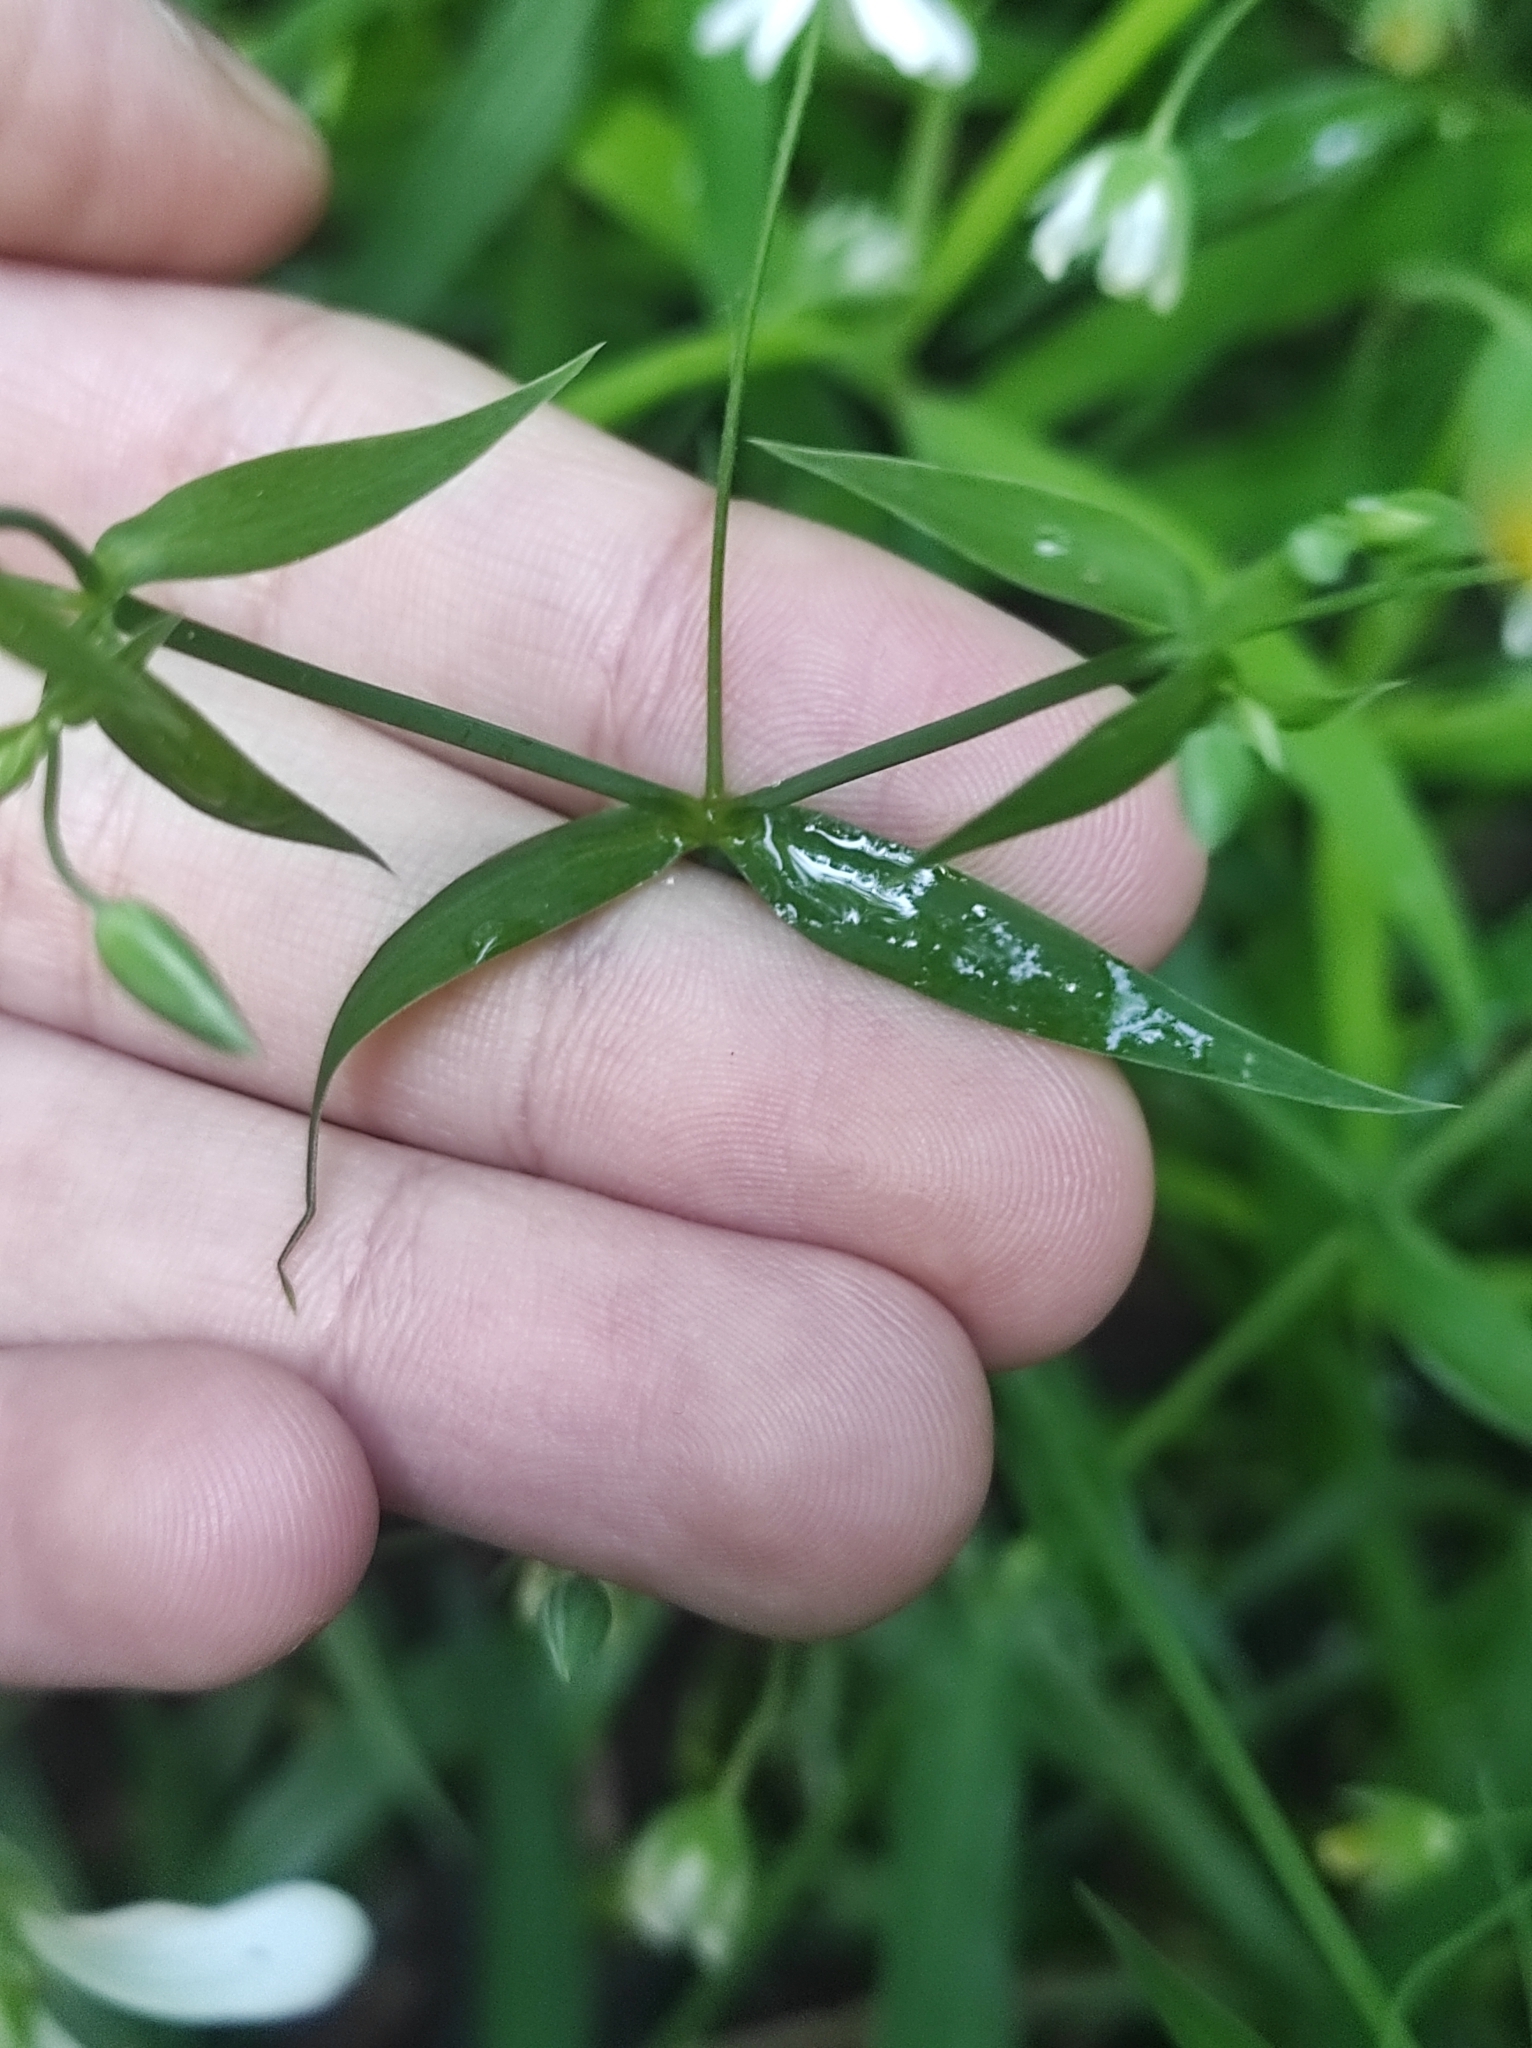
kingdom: Plantae
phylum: Tracheophyta
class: Magnoliopsida
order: Caryophyllales
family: Caryophyllaceae
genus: Rabelera
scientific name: Rabelera holostea
